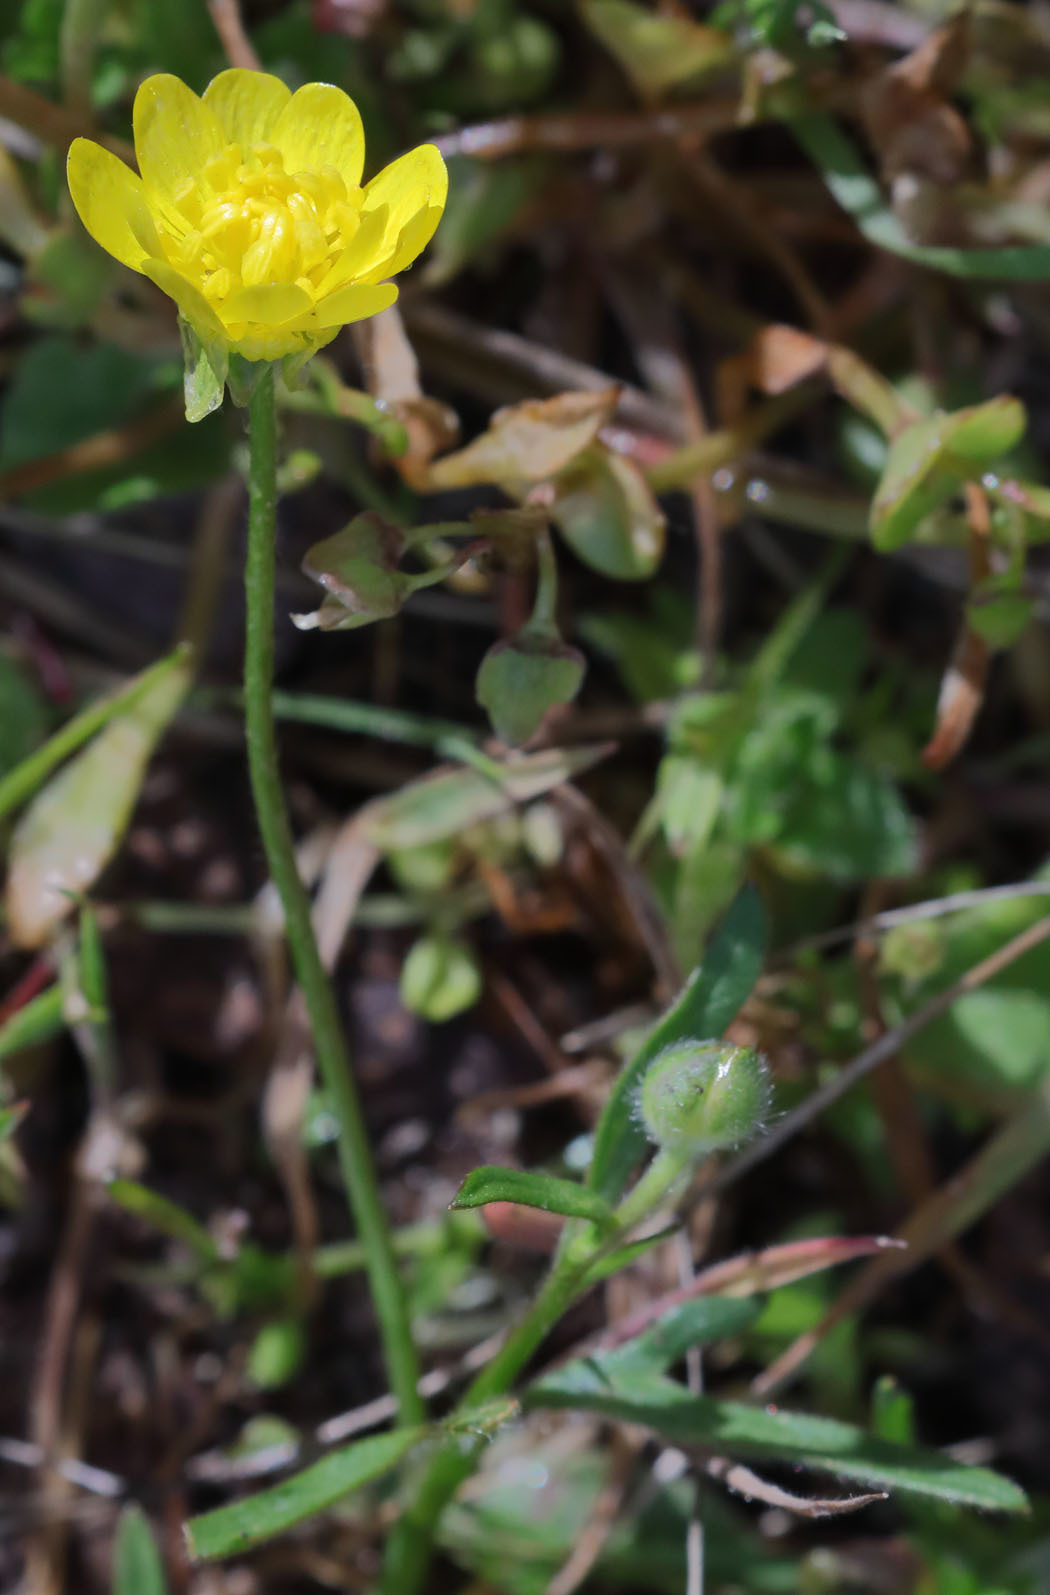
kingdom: Plantae
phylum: Tracheophyta
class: Magnoliopsida
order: Ranunculales
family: Ranunculaceae
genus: Ranunculus
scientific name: Ranunculus californicus
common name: California buttercup
